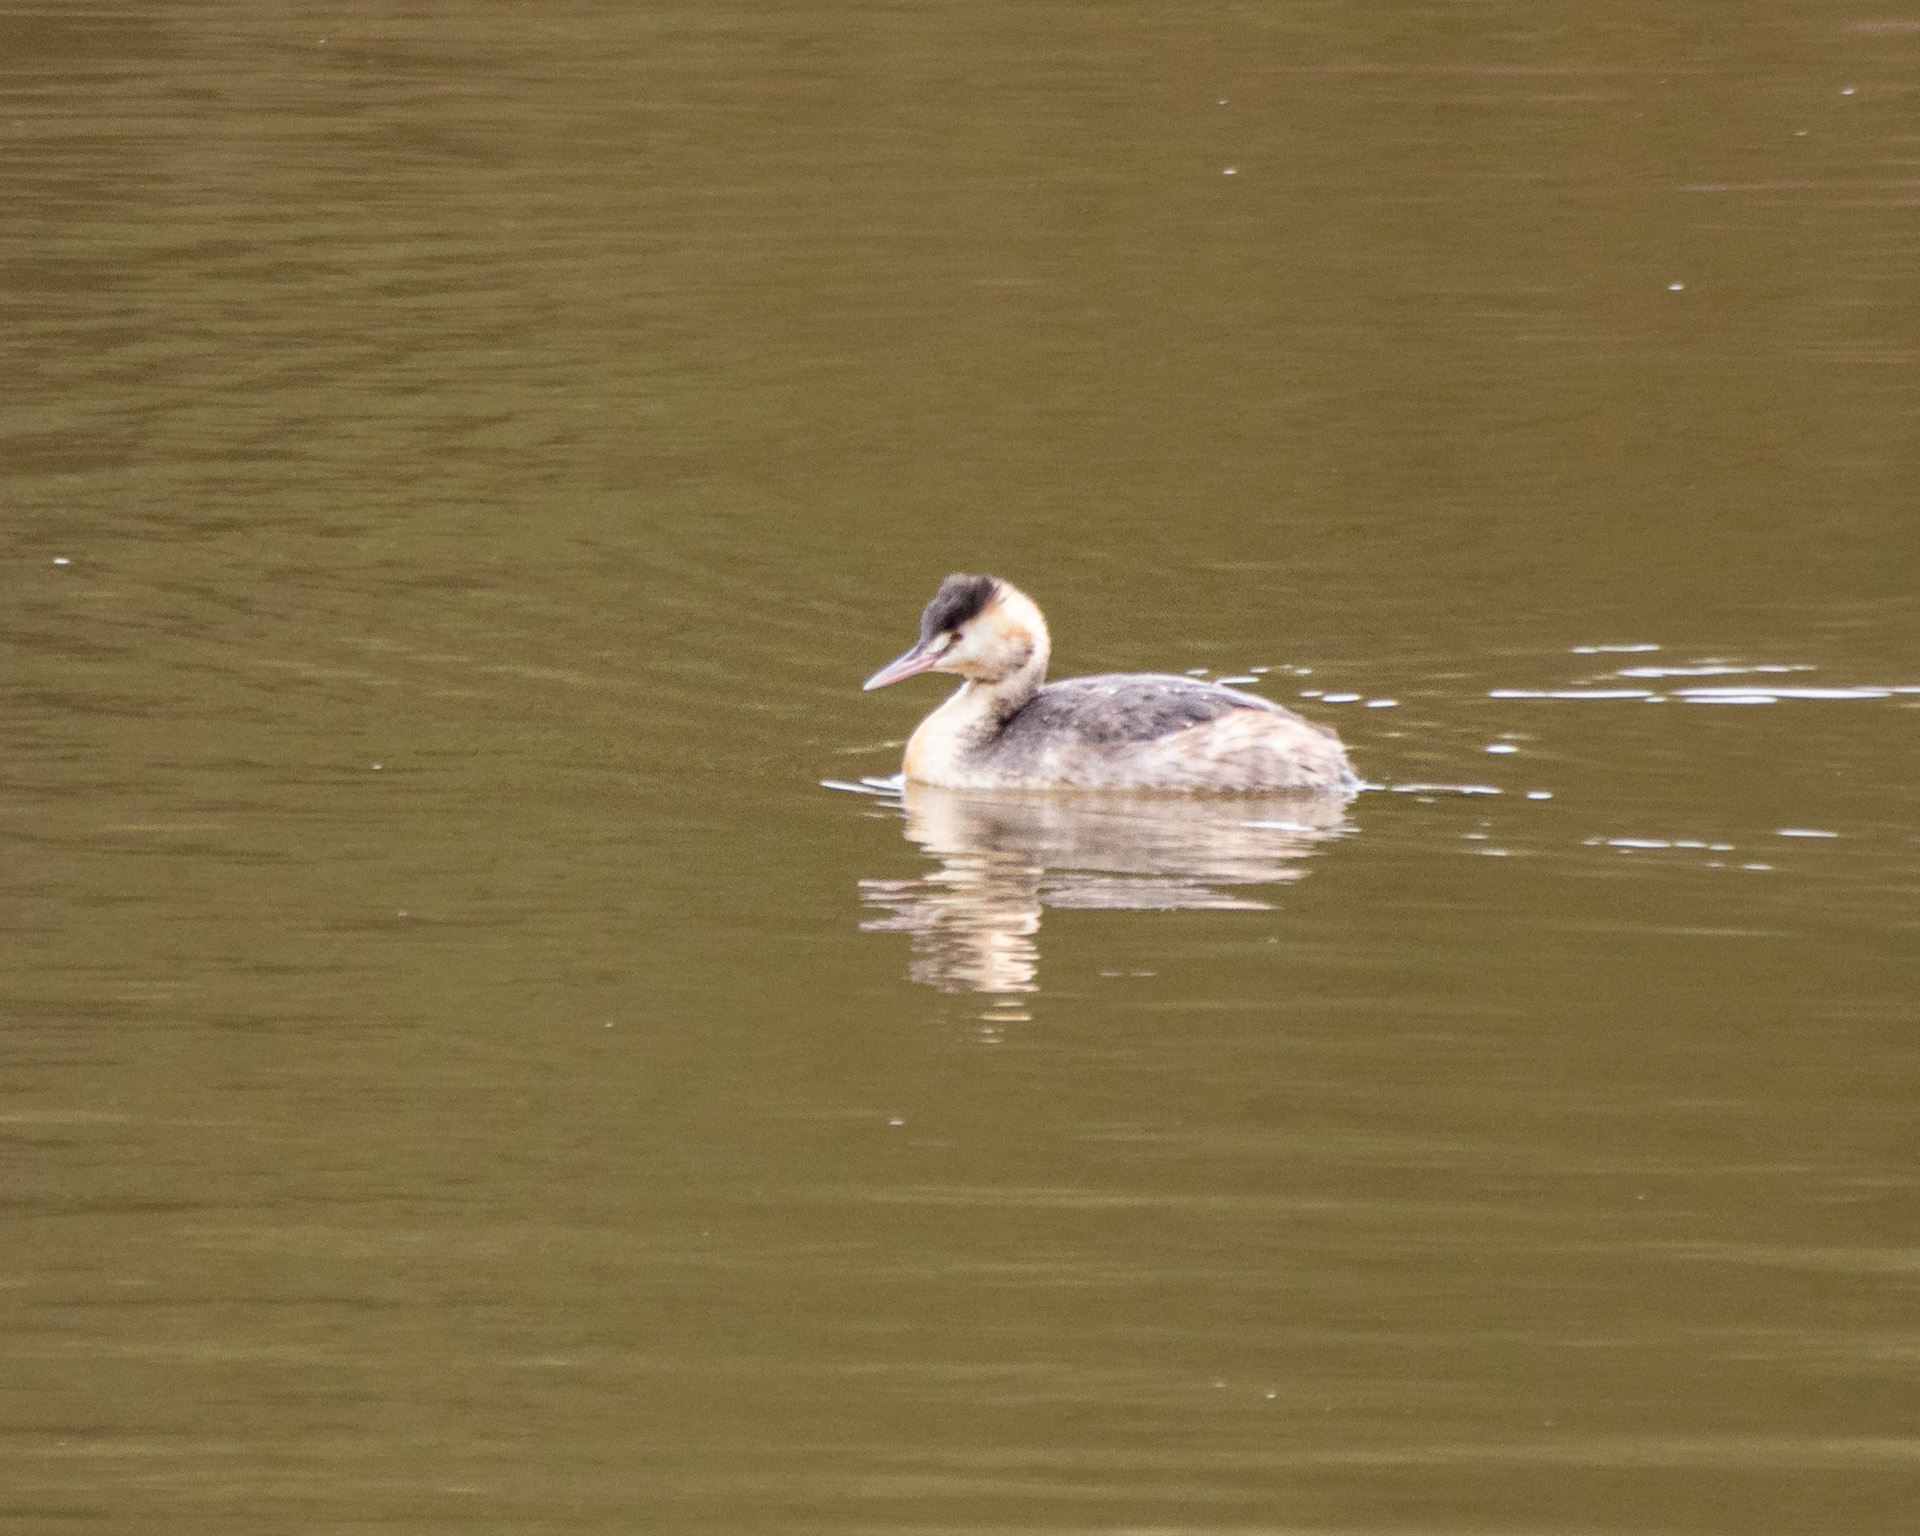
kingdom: Animalia
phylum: Chordata
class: Aves
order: Podicipediformes
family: Podicipedidae
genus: Podiceps
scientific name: Podiceps cristatus
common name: Great crested grebe
